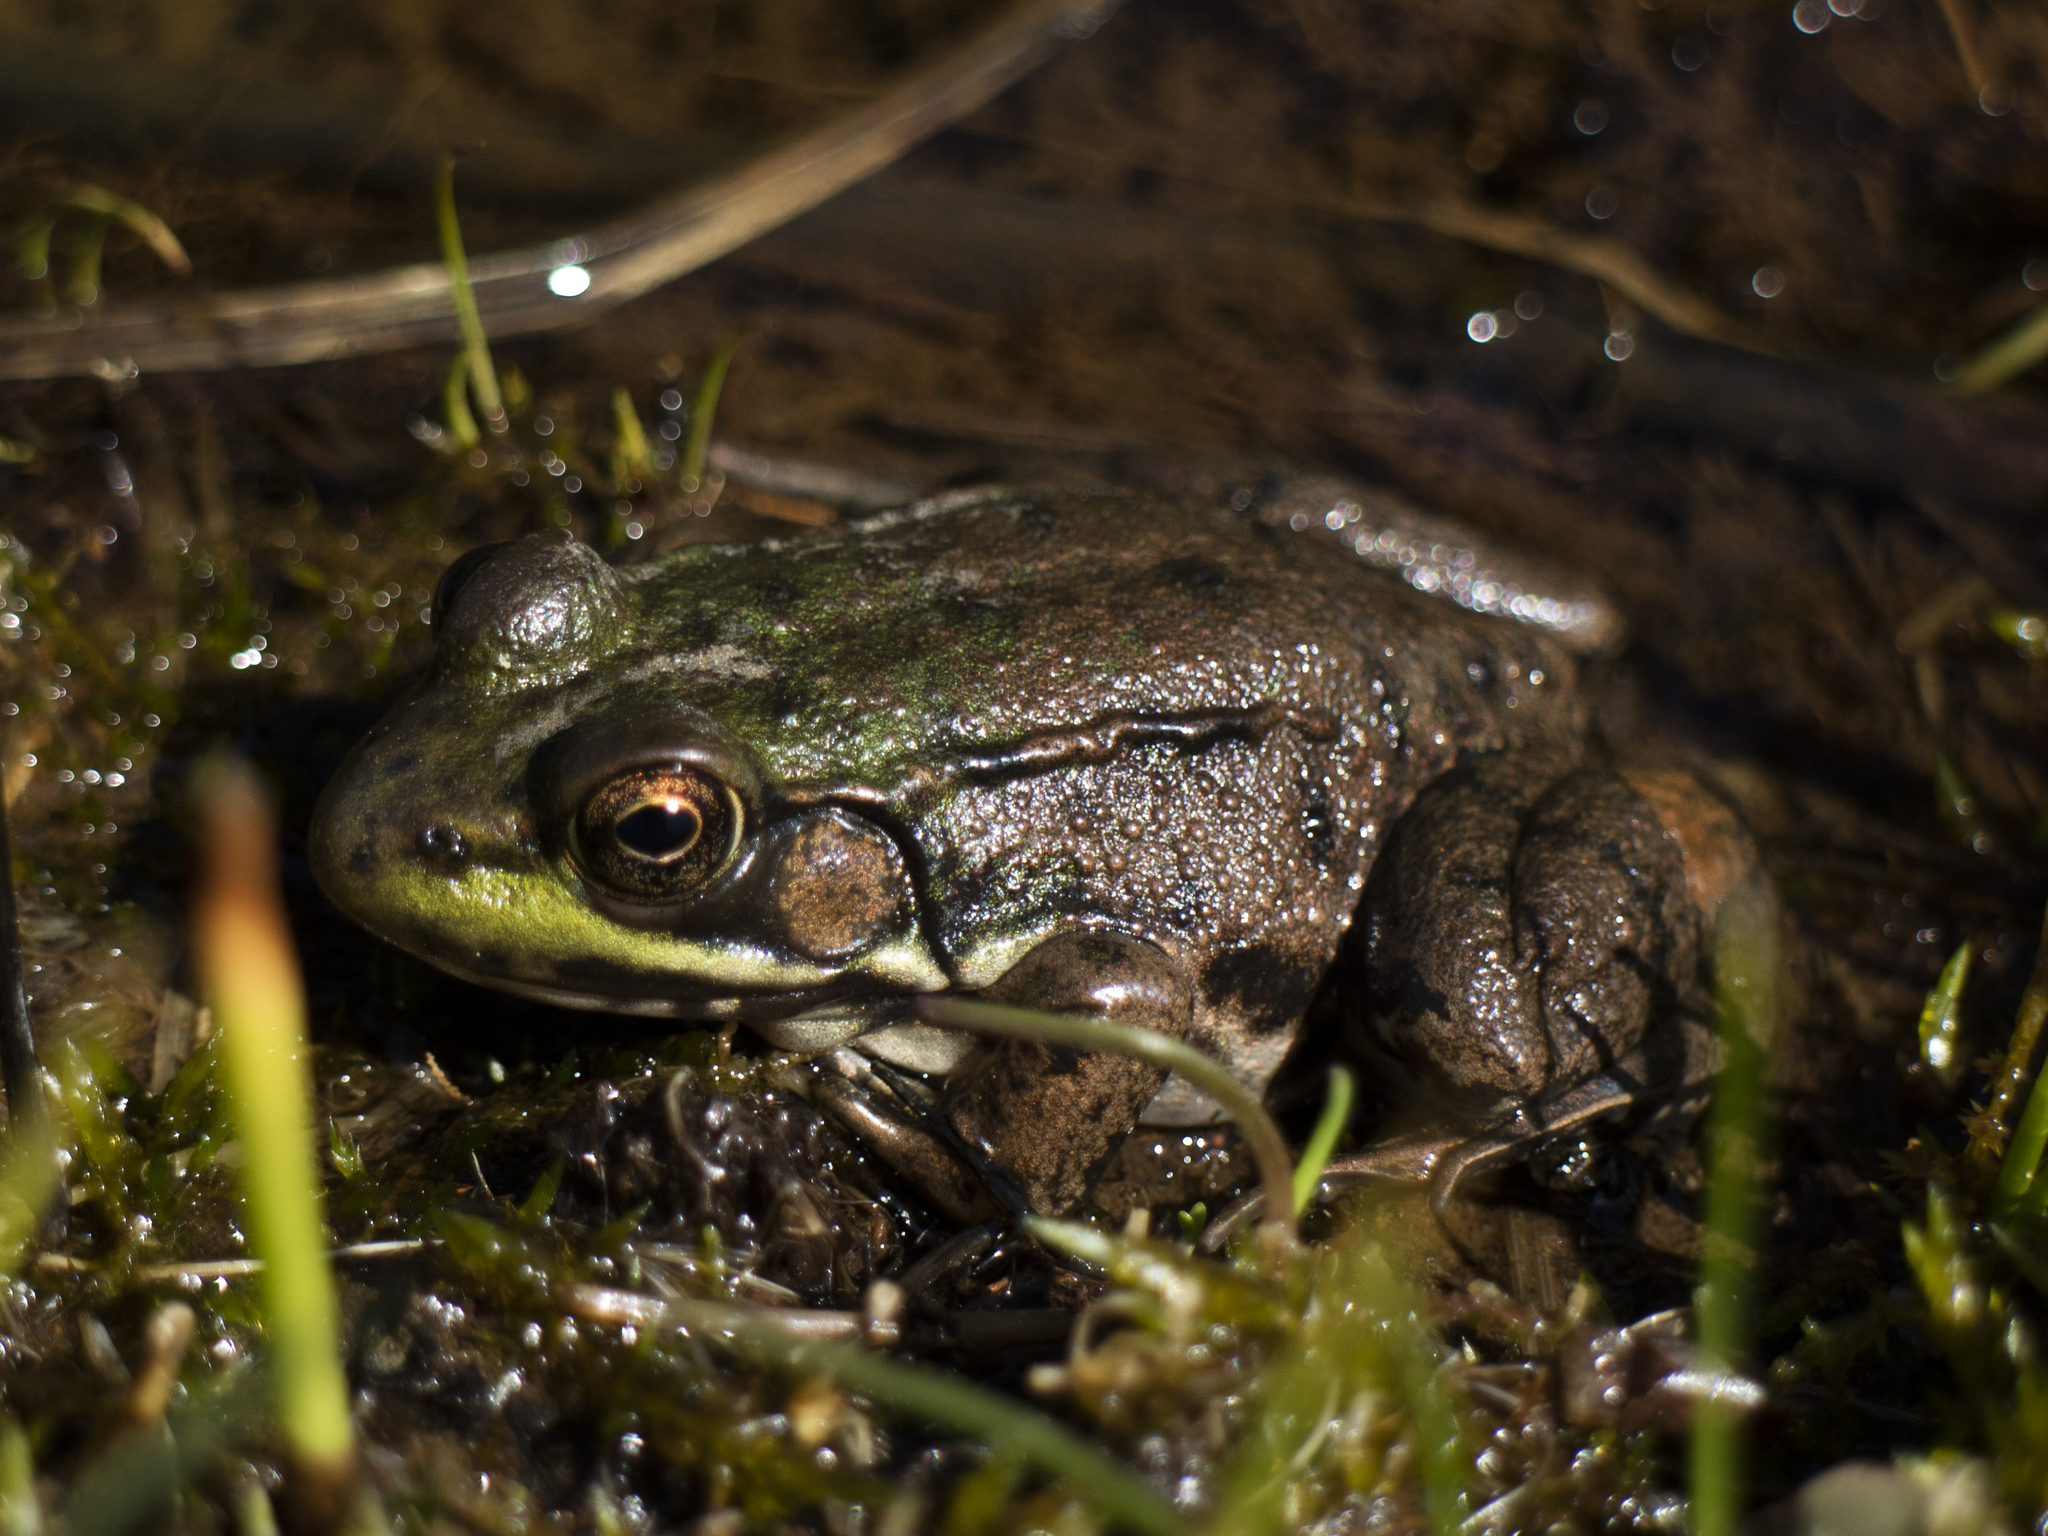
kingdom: Animalia
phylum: Chordata
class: Amphibia
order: Anura
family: Ranidae
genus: Lithobates
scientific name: Lithobates clamitans
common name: Green frog
